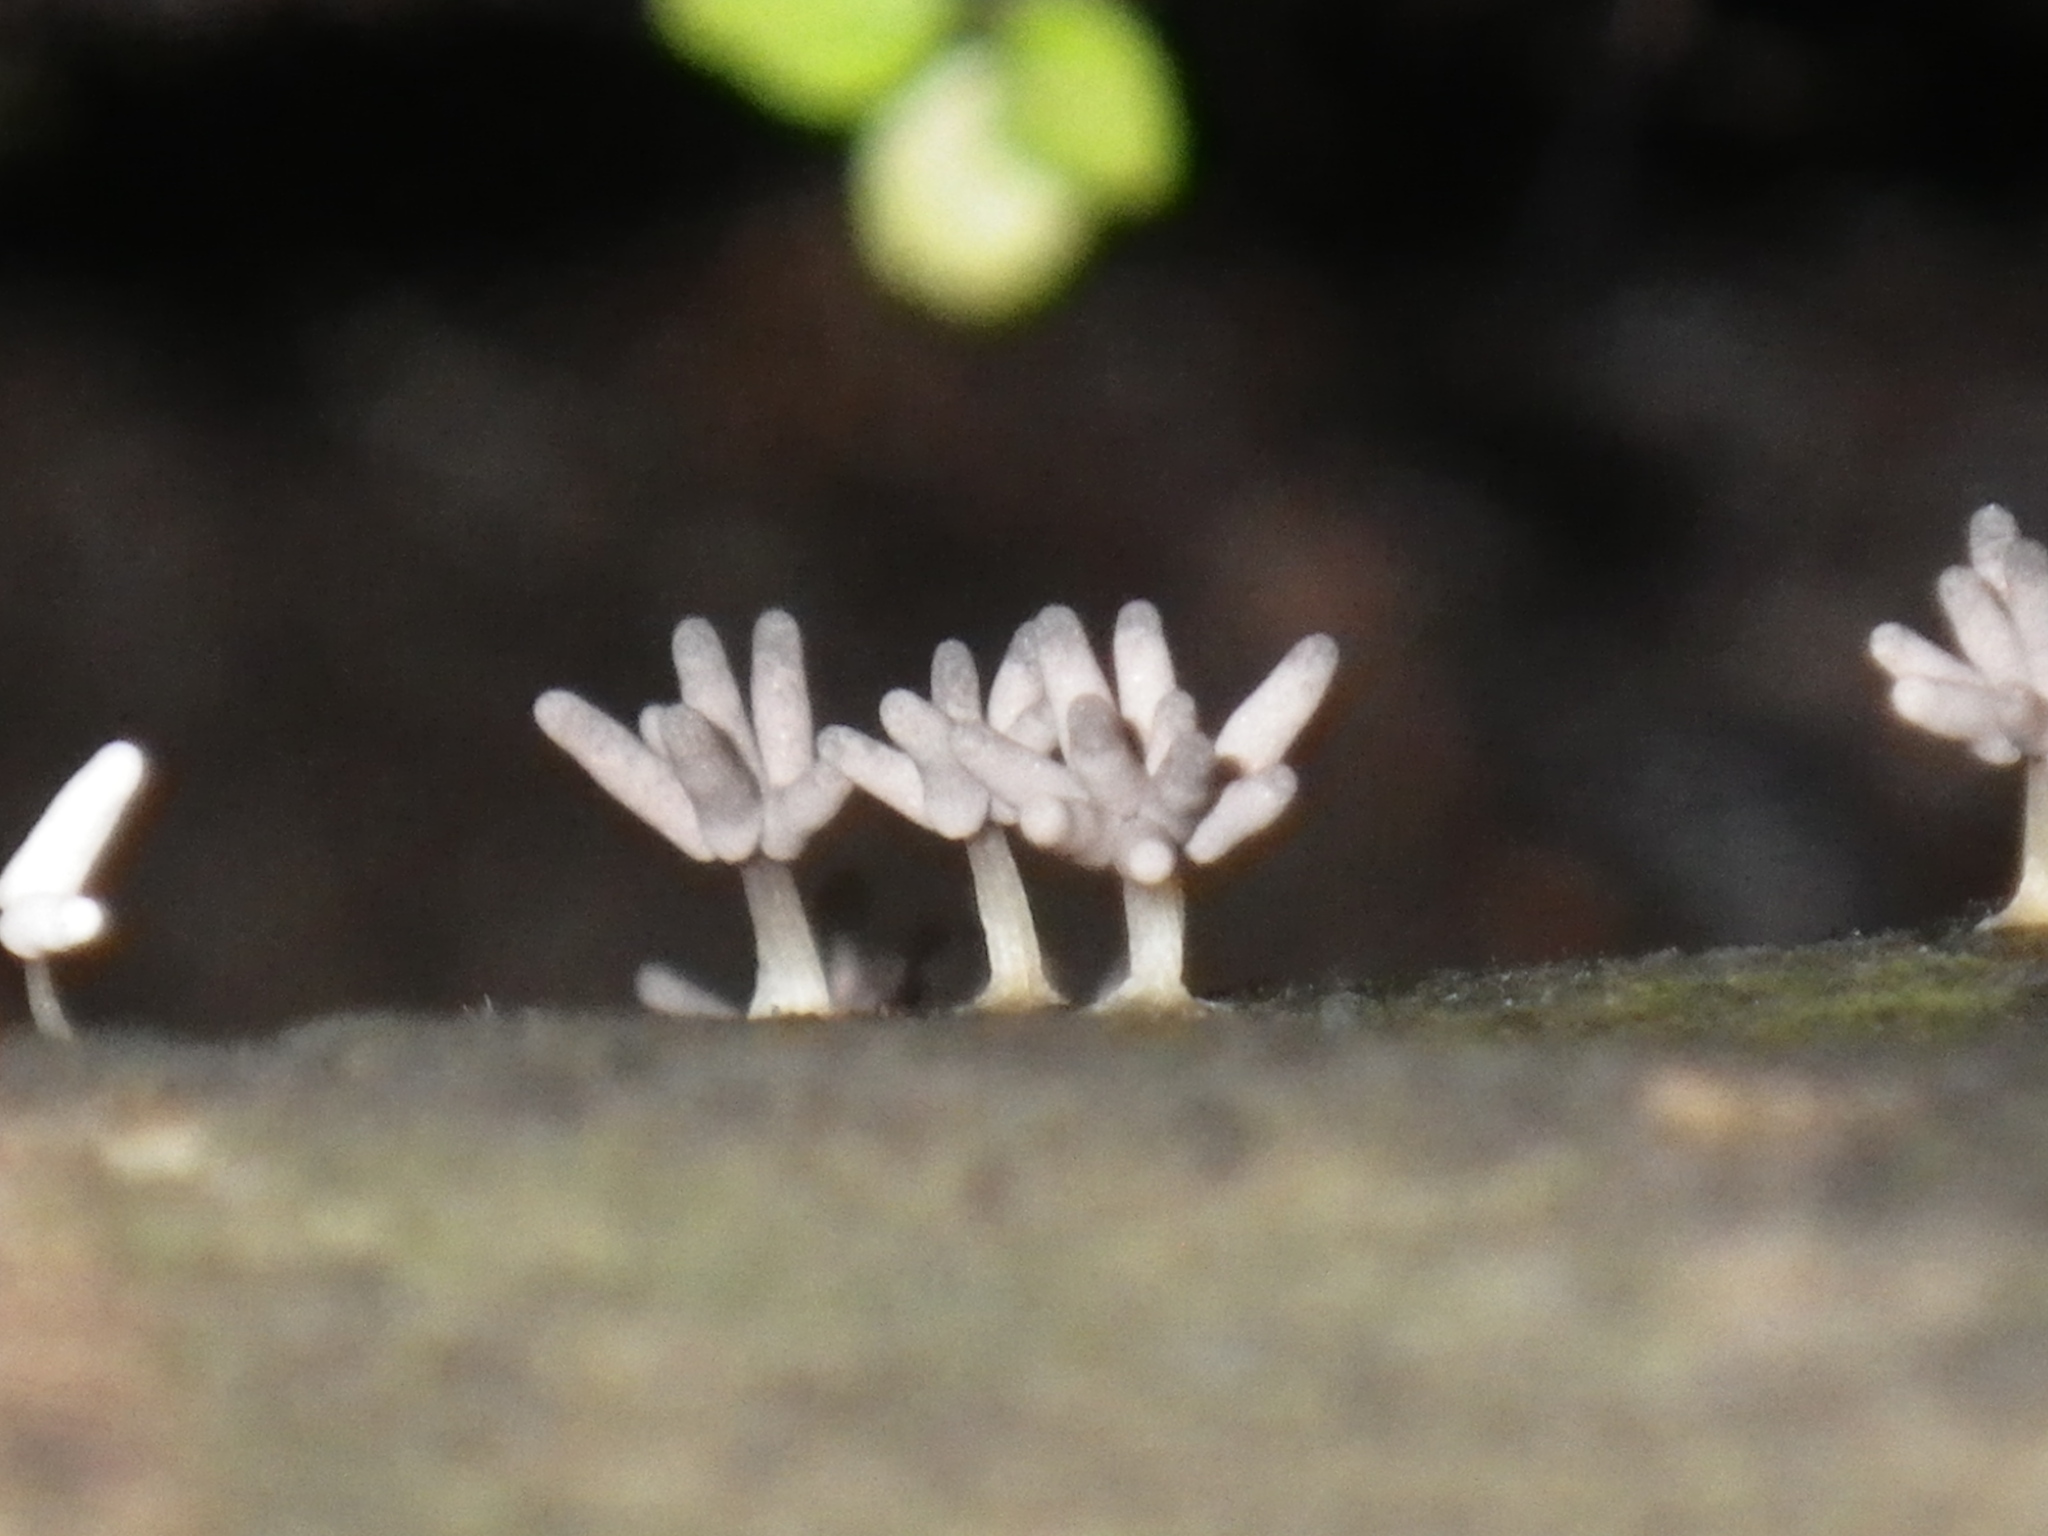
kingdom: Protozoa
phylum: Mycetozoa
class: Myxomycetes
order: Trichiales
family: Arcyriaceae
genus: Arcyria
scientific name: Arcyria cinerea
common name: White carnival candy slime mold
